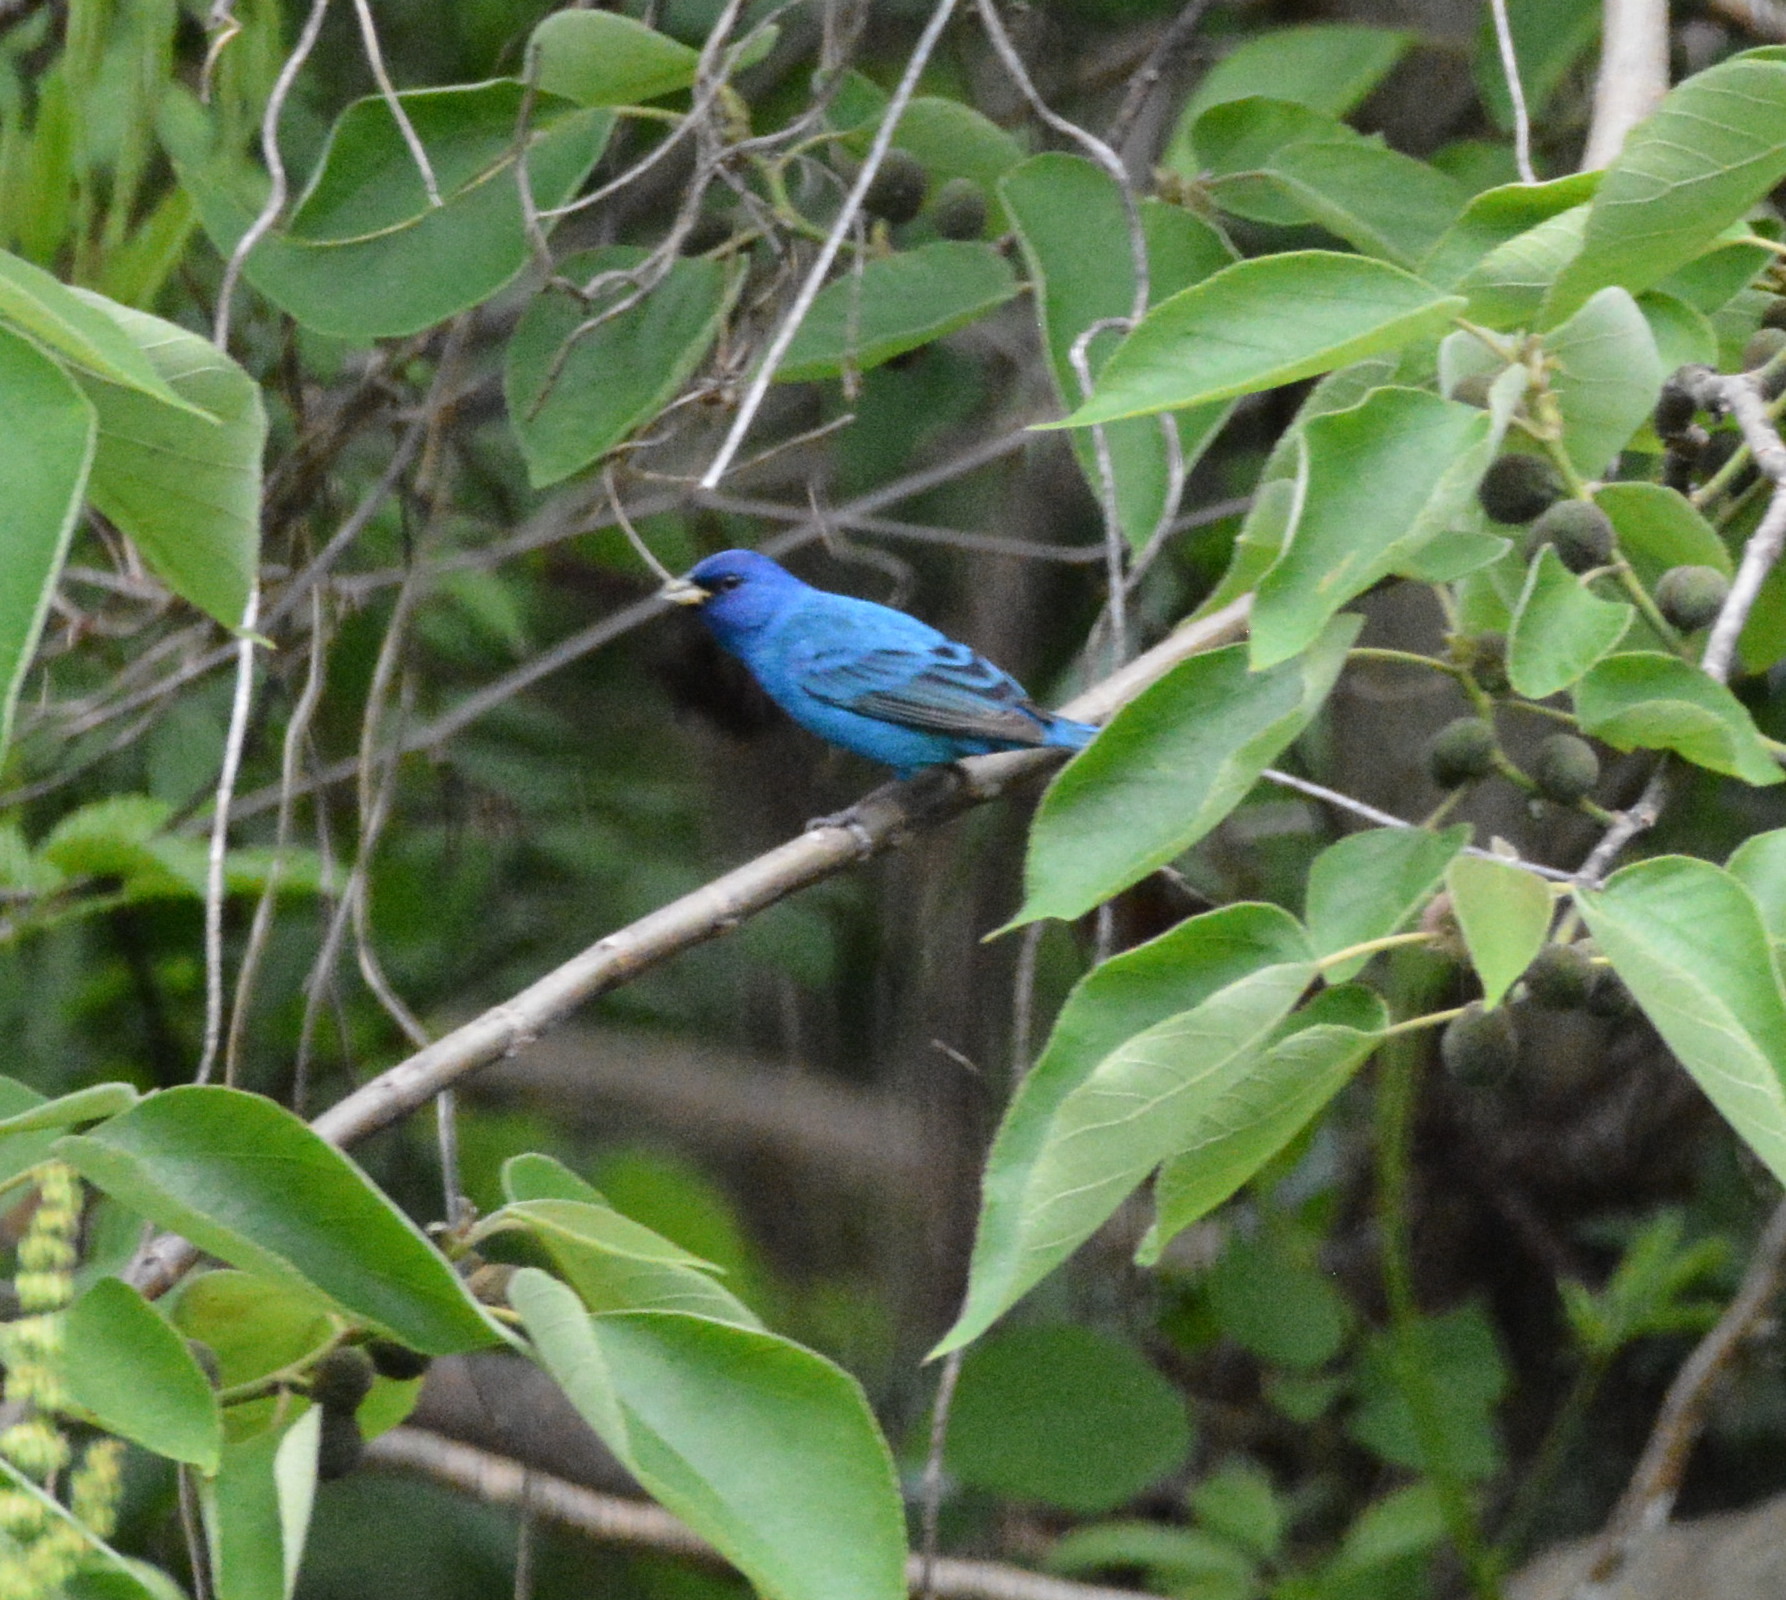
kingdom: Animalia
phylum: Chordata
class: Aves
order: Passeriformes
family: Cardinalidae
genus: Passerina
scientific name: Passerina cyanea
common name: Indigo bunting
